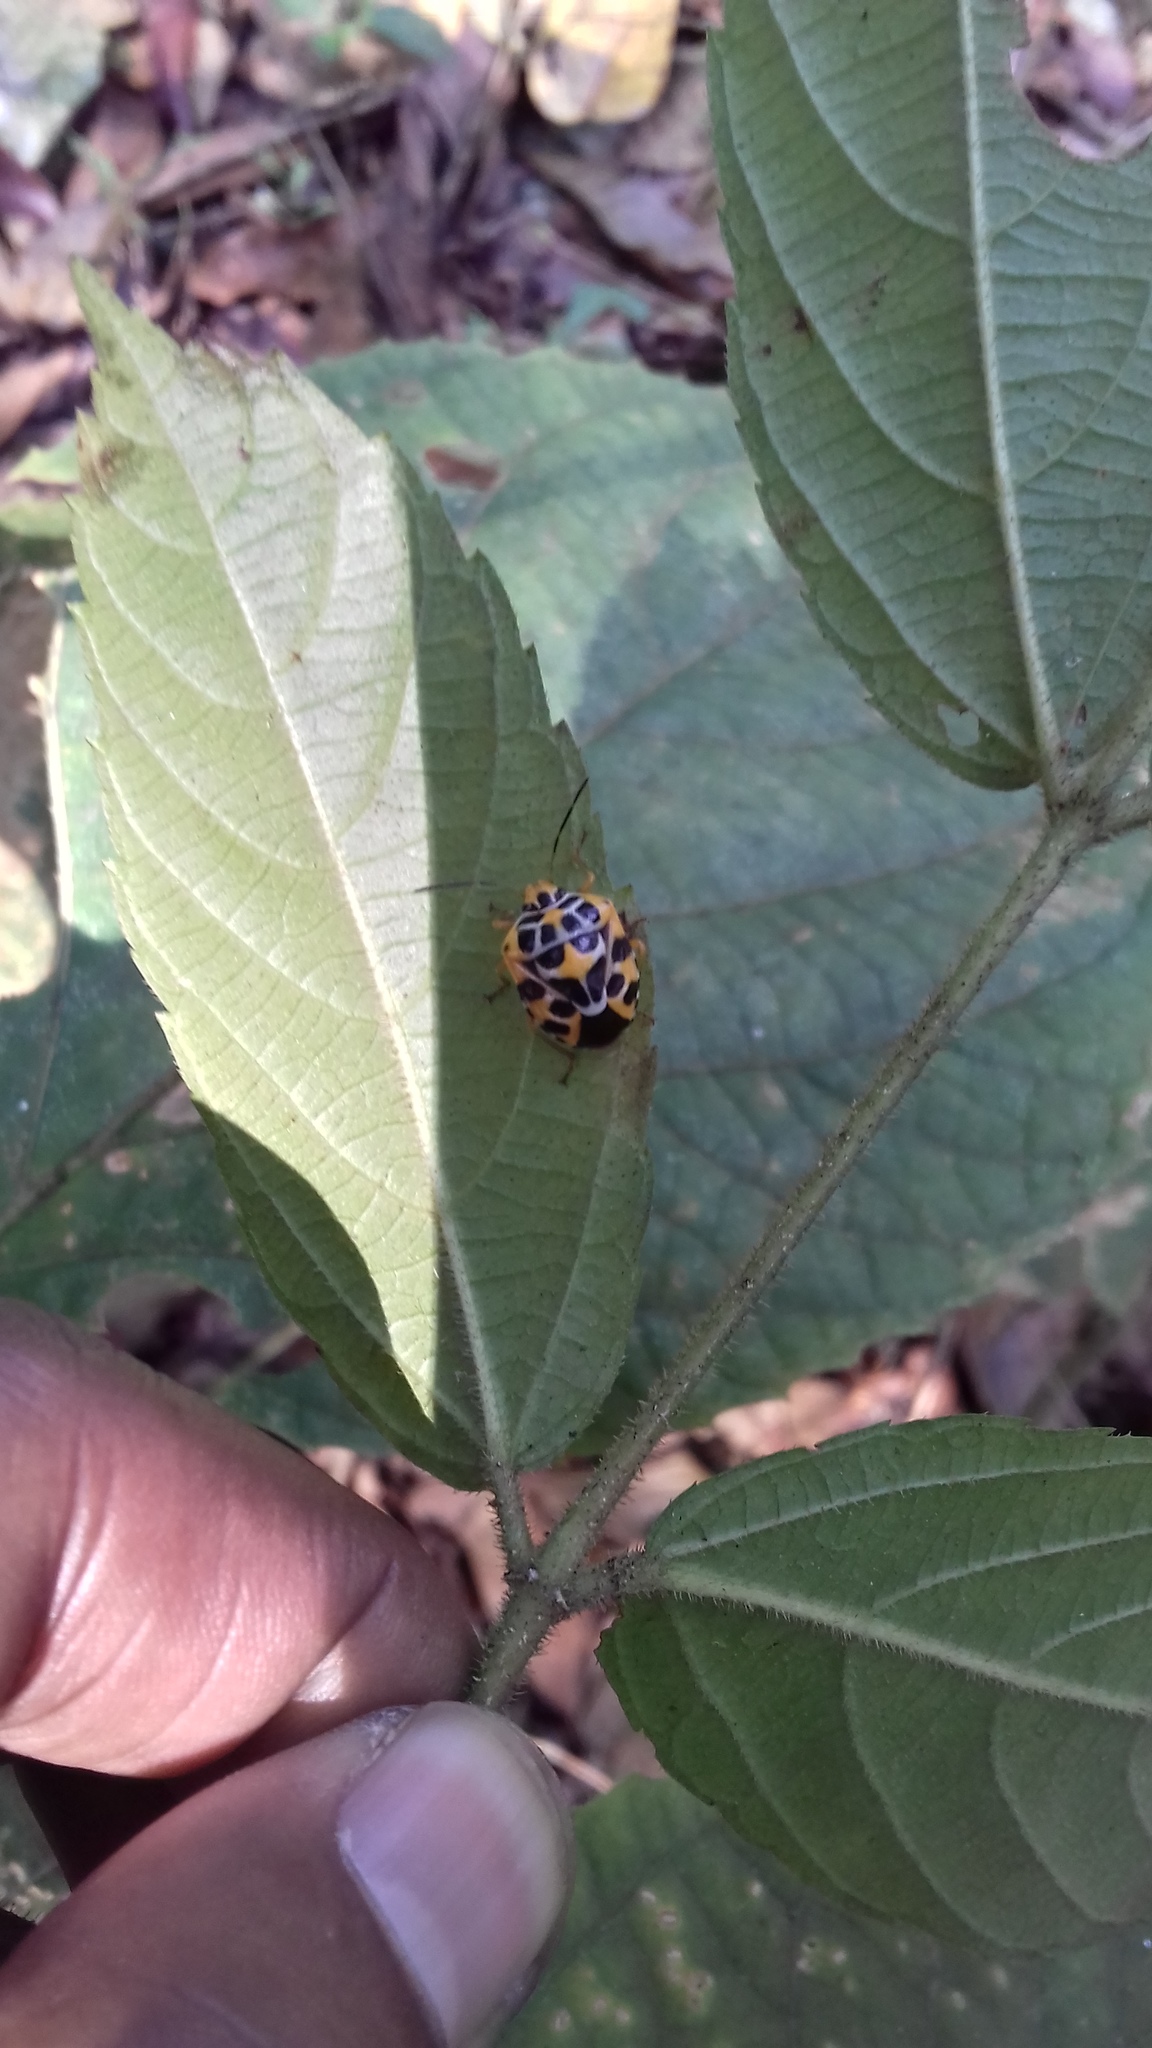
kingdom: Animalia
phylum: Arthropoda
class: Insecta
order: Hemiptera
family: Pentatomidae
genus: Antestiopsis
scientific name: Antestiopsis
